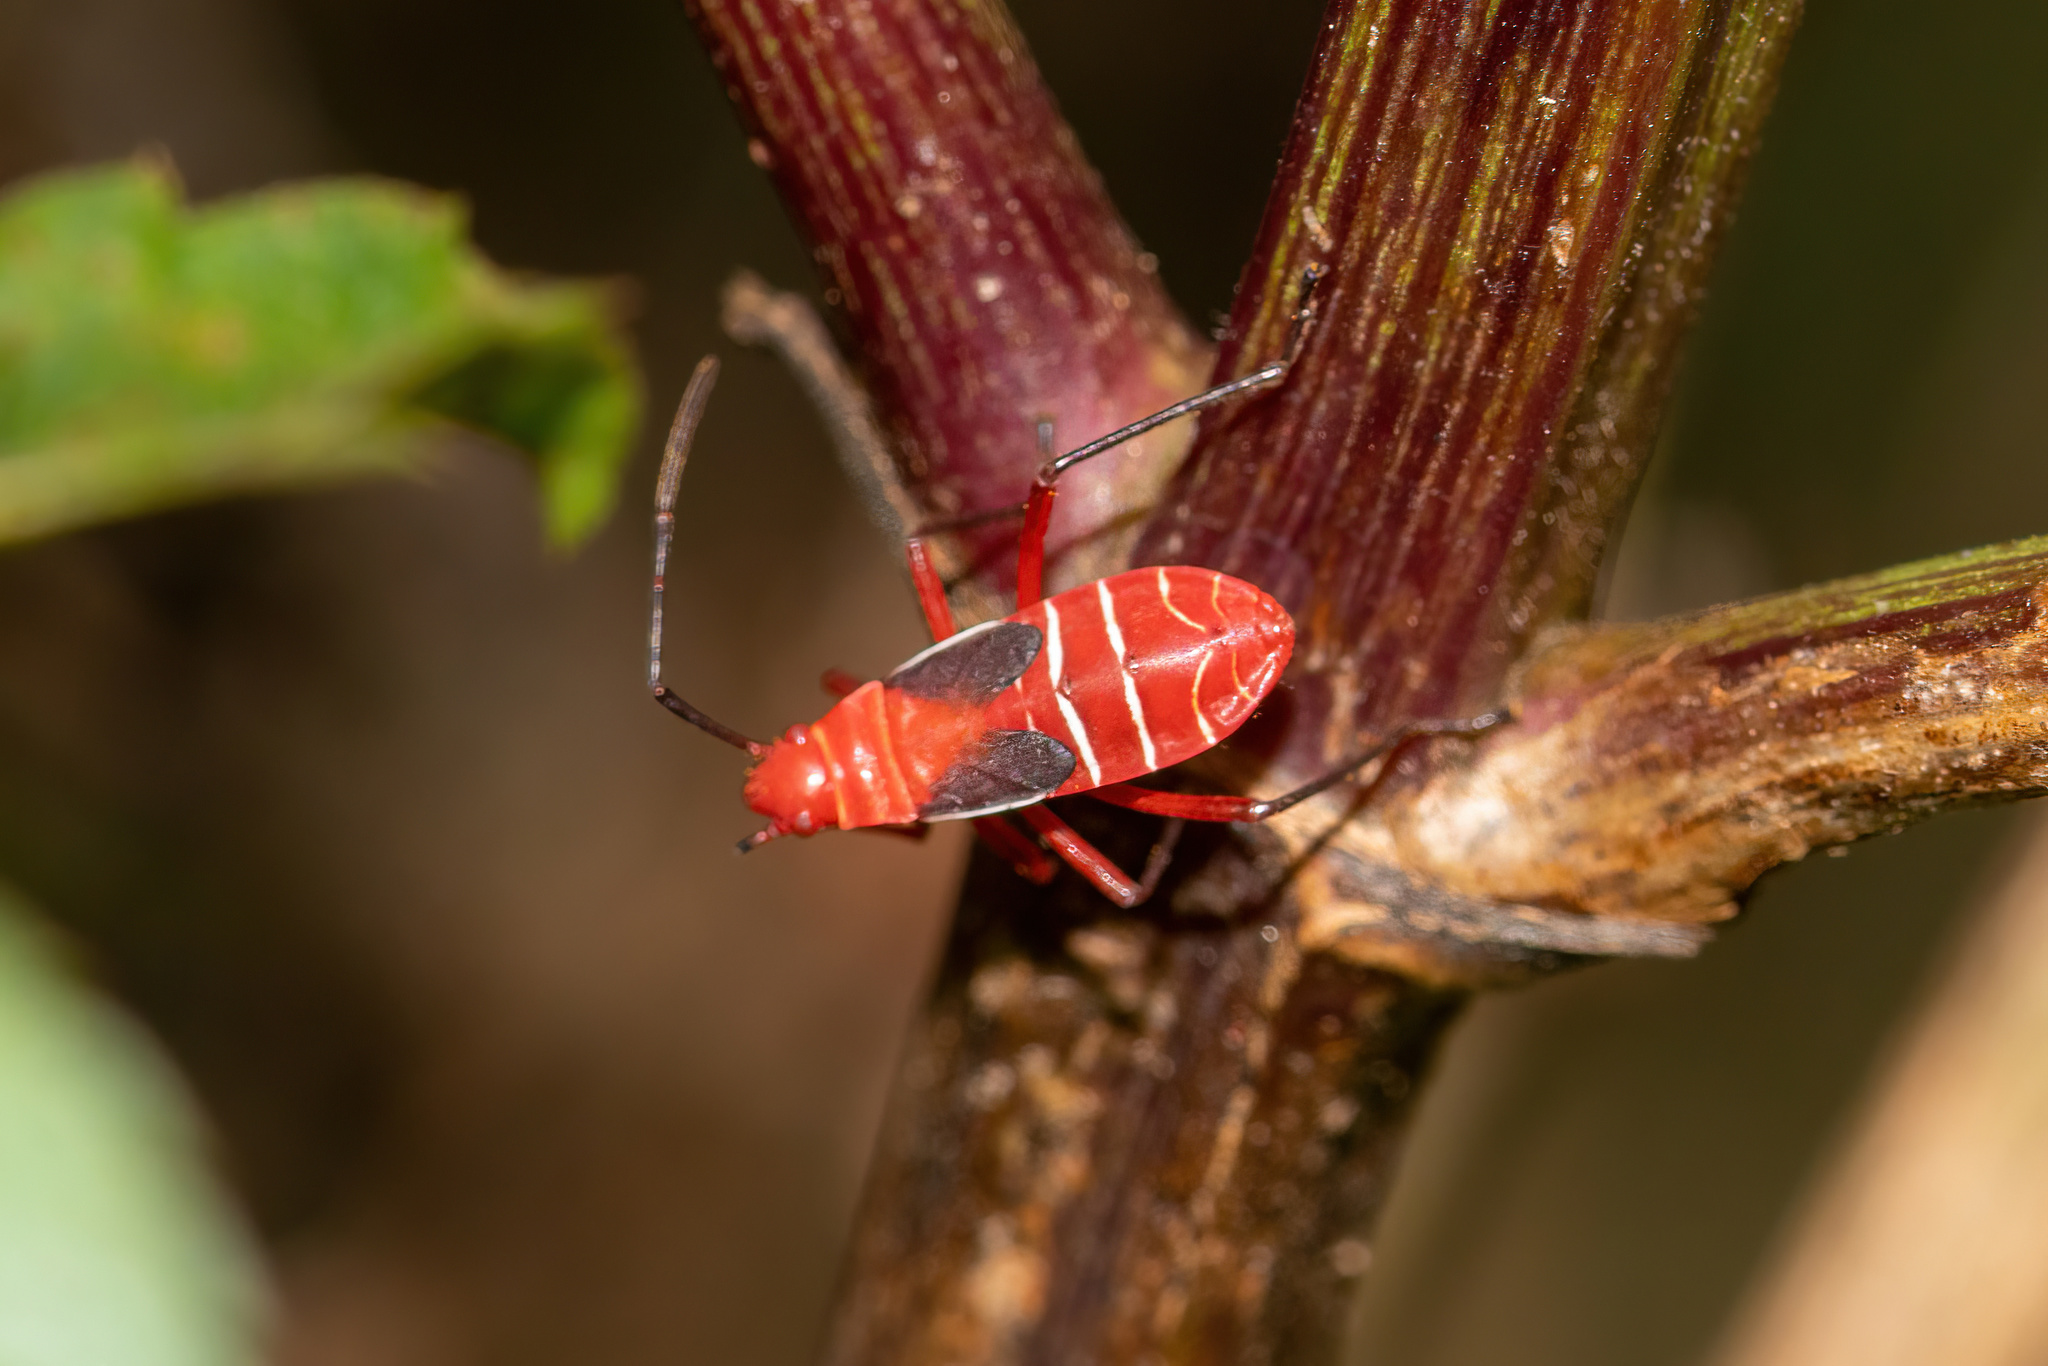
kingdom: Animalia
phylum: Arthropoda
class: Insecta
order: Hemiptera
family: Pyrrhocoridae
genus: Dysdercus
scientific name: Dysdercus suturellus
